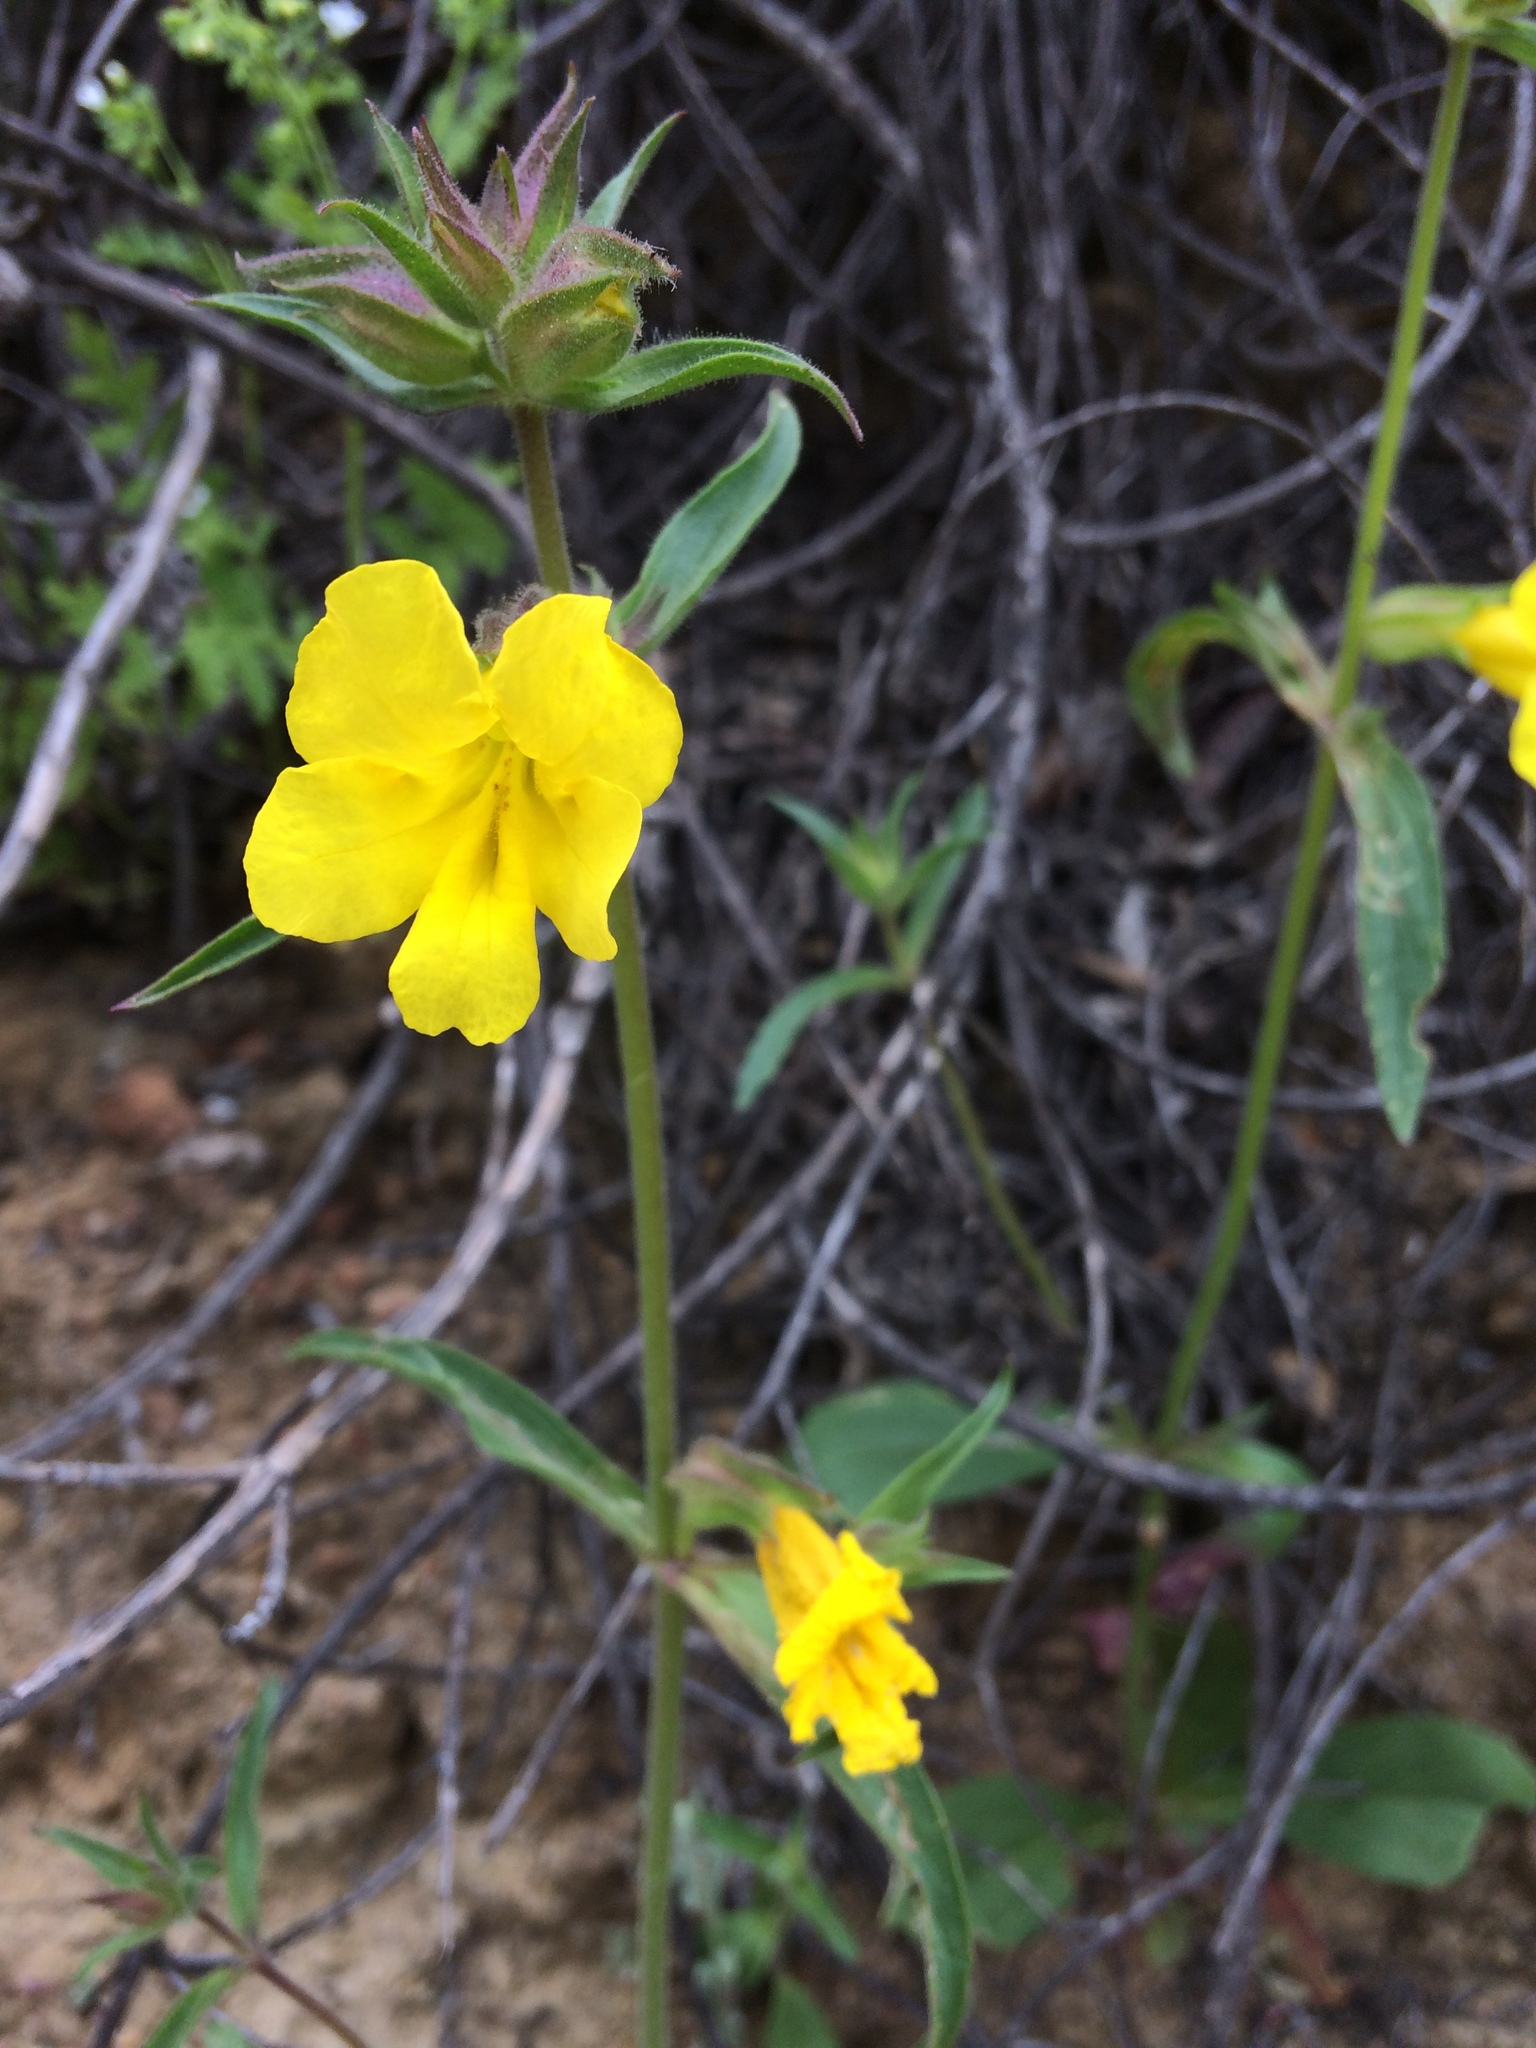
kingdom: Plantae
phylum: Tracheophyta
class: Magnoliopsida
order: Lamiales
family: Phrymaceae
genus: Diplacus
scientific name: Diplacus brevipes
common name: Wide-throat yellow monkey-flower
